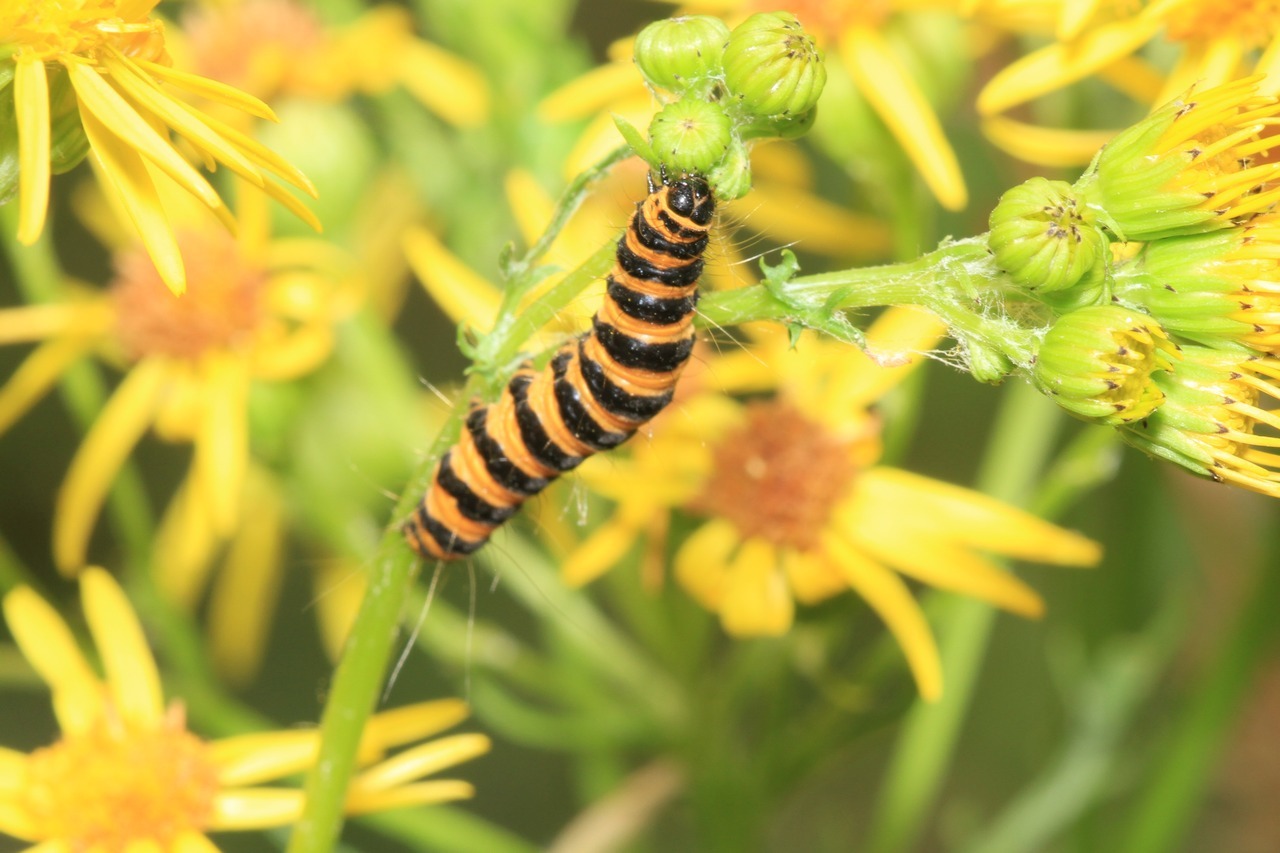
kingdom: Animalia
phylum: Arthropoda
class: Insecta
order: Lepidoptera
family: Erebidae
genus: Tyria
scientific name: Tyria jacobaeae
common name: Cinnabar
